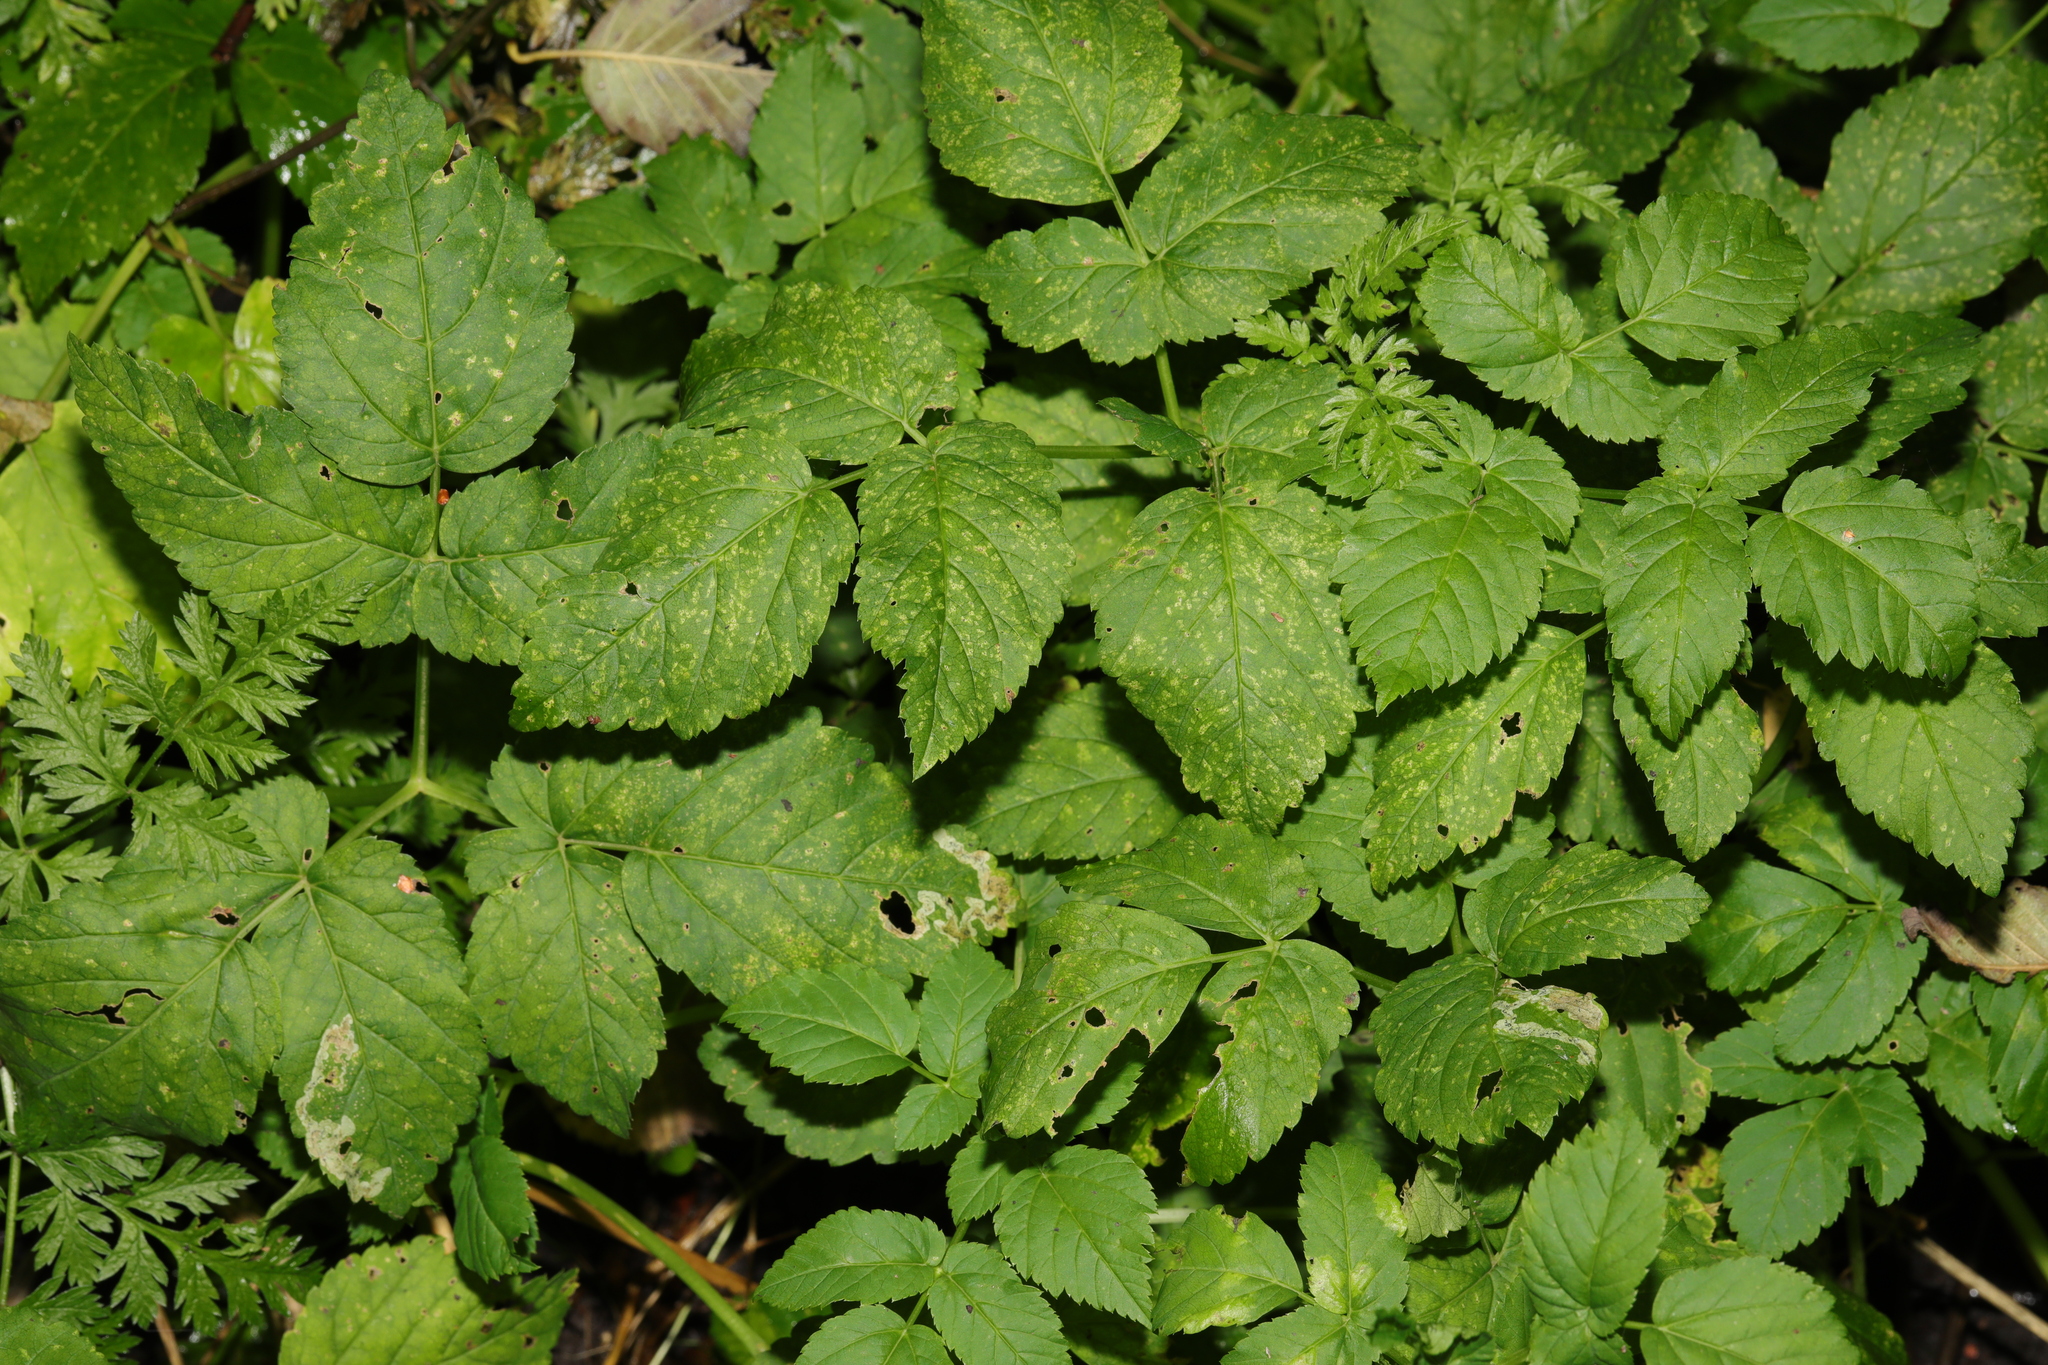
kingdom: Plantae
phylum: Tracheophyta
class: Magnoliopsida
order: Apiales
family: Apiaceae
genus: Aegopodium
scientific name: Aegopodium podagraria
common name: Ground-elder
